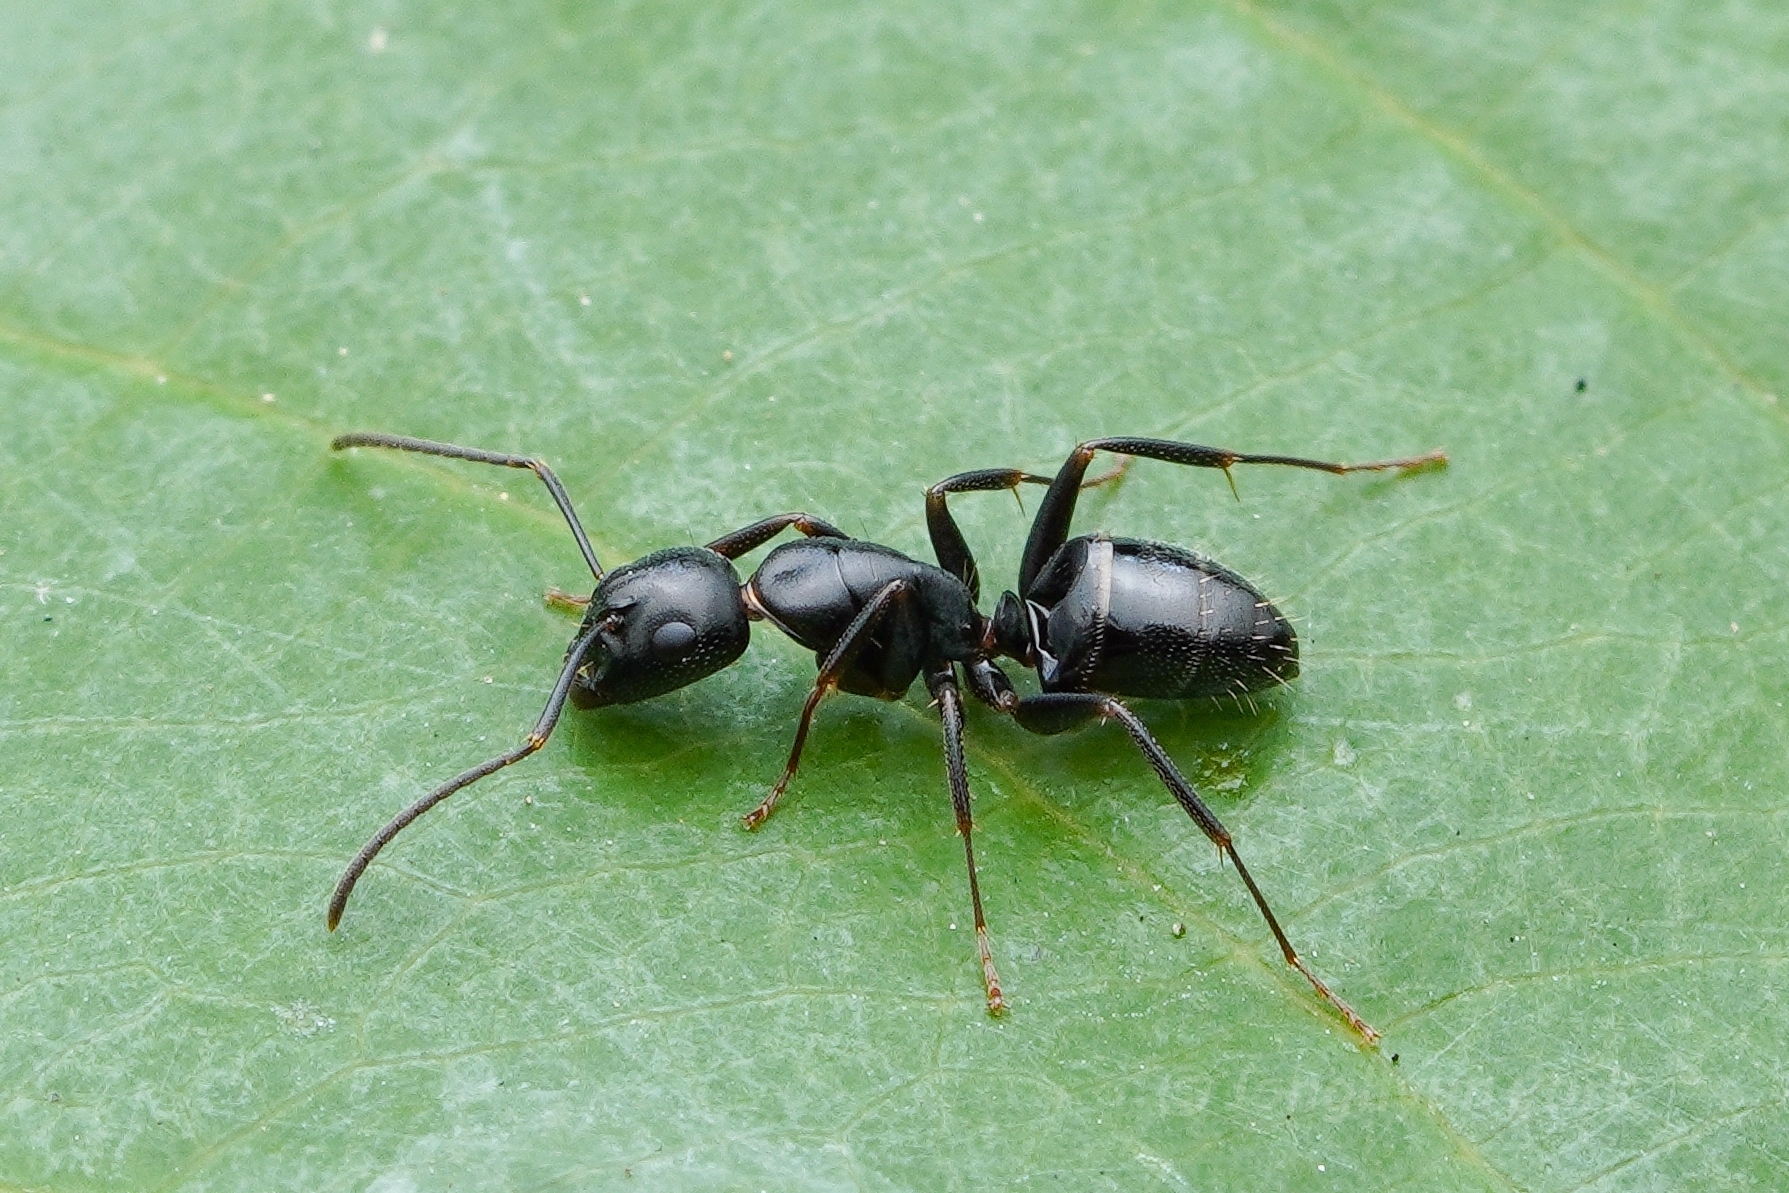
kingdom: Animalia
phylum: Arthropoda
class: Insecta
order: Hymenoptera
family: Formicidae
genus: Camponotus
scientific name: Camponotus nearcticus
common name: Smaller carpenter ant
